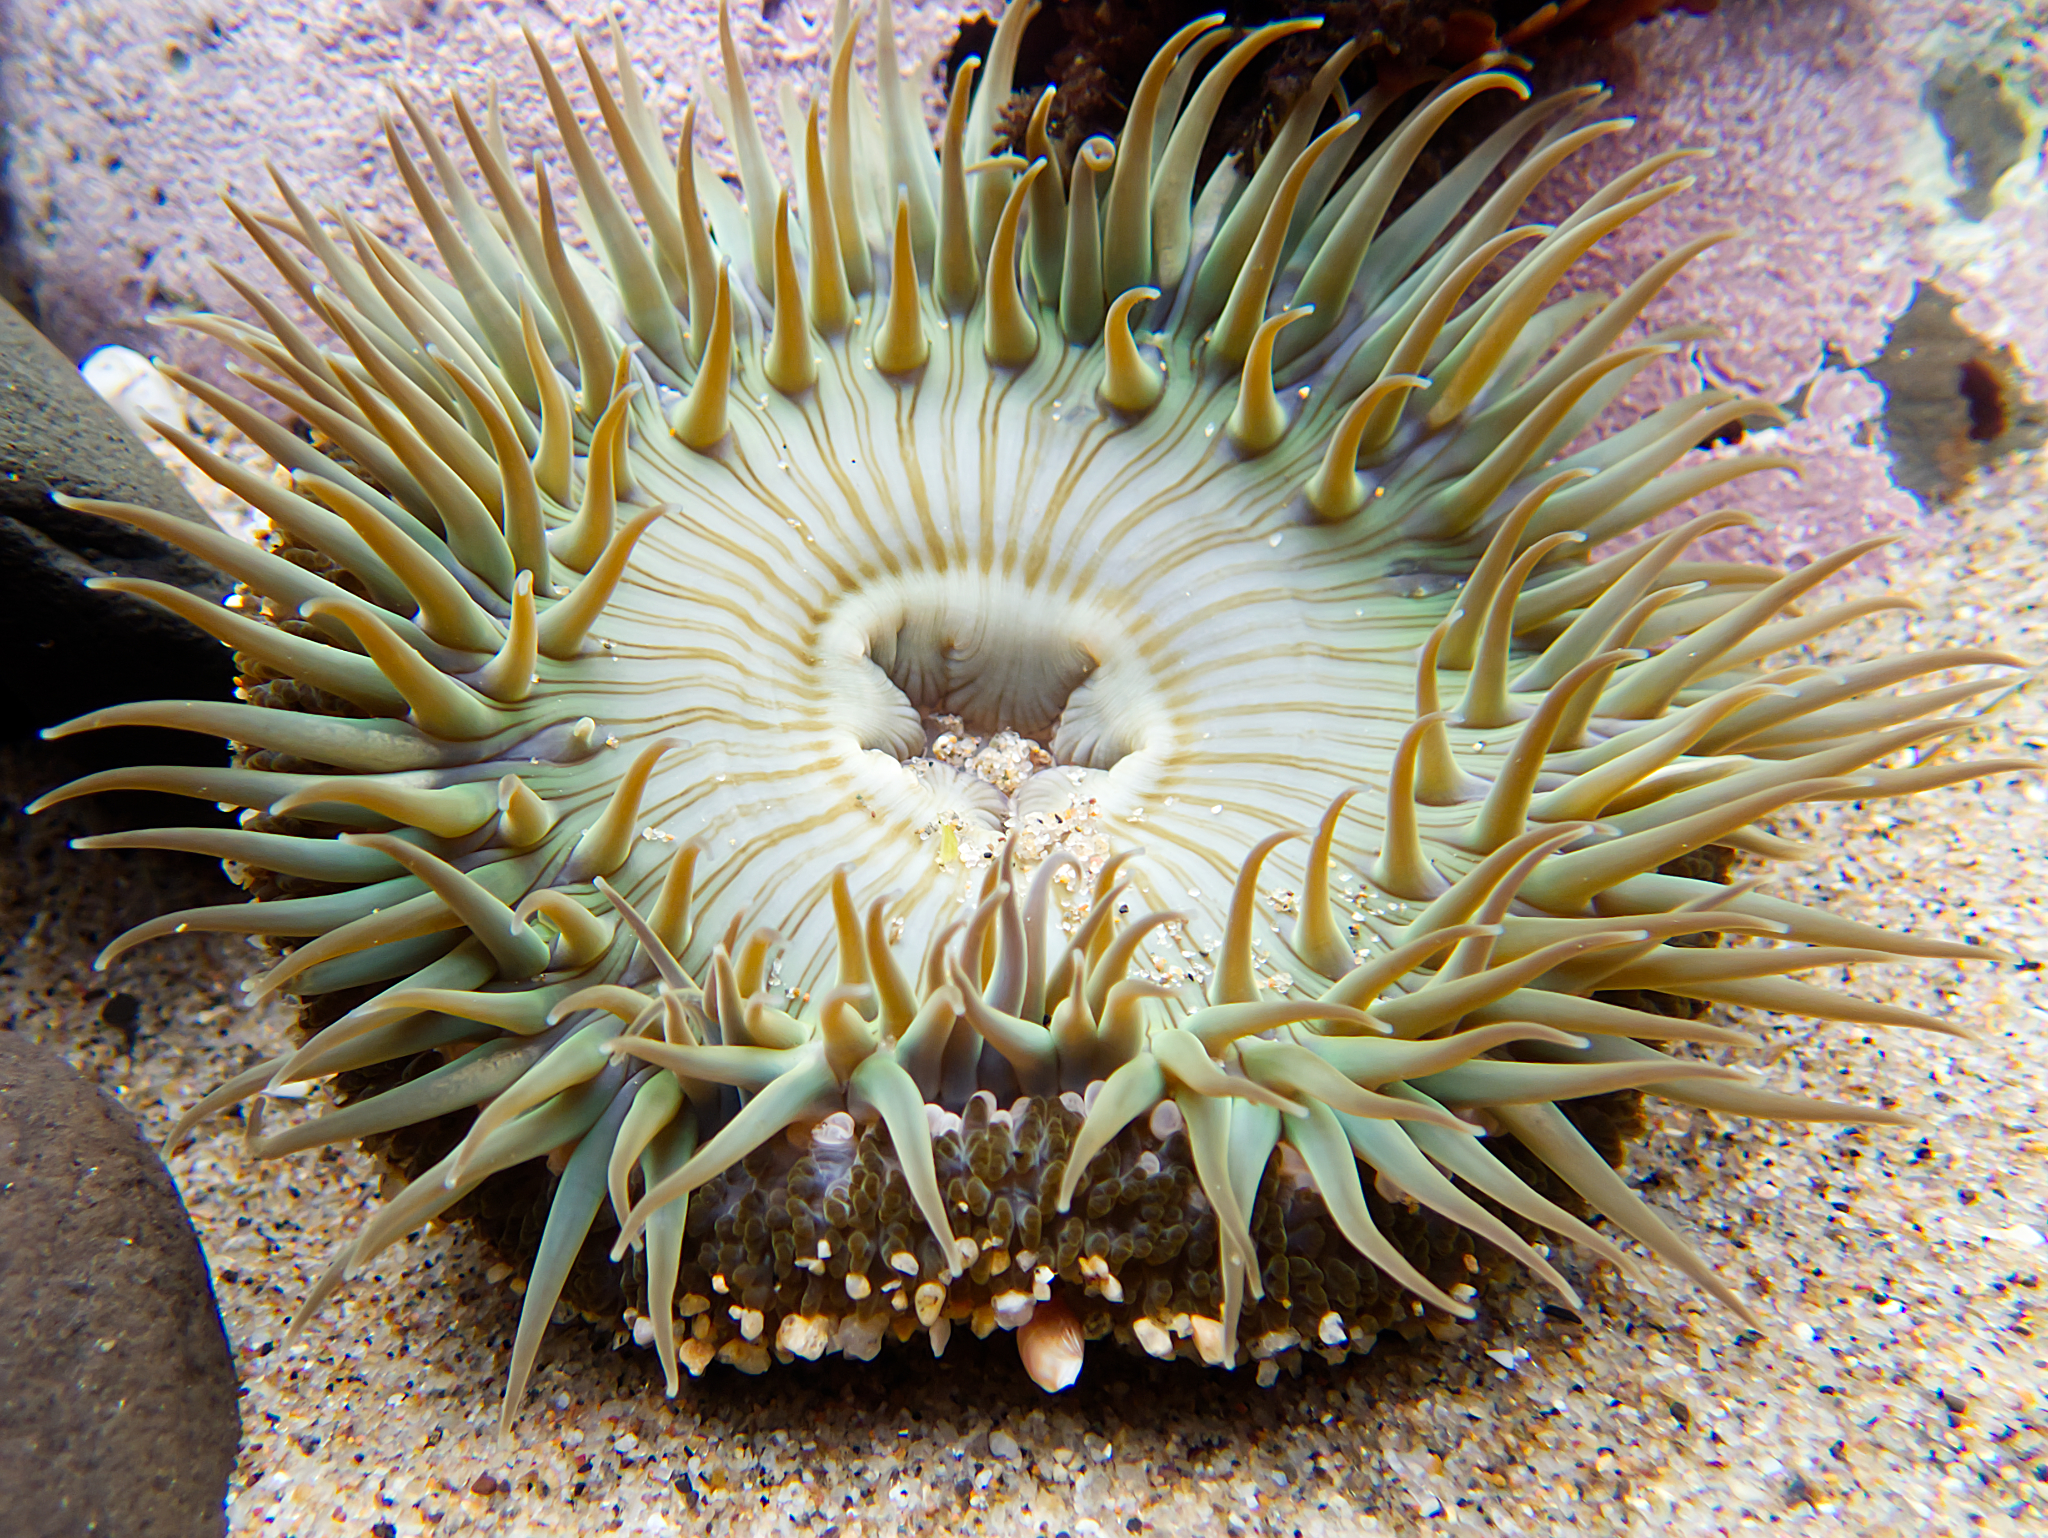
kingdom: Animalia
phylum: Cnidaria
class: Anthozoa
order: Actiniaria
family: Actiniidae
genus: Anthopleura
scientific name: Anthopleura sola
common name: Sun anemone
